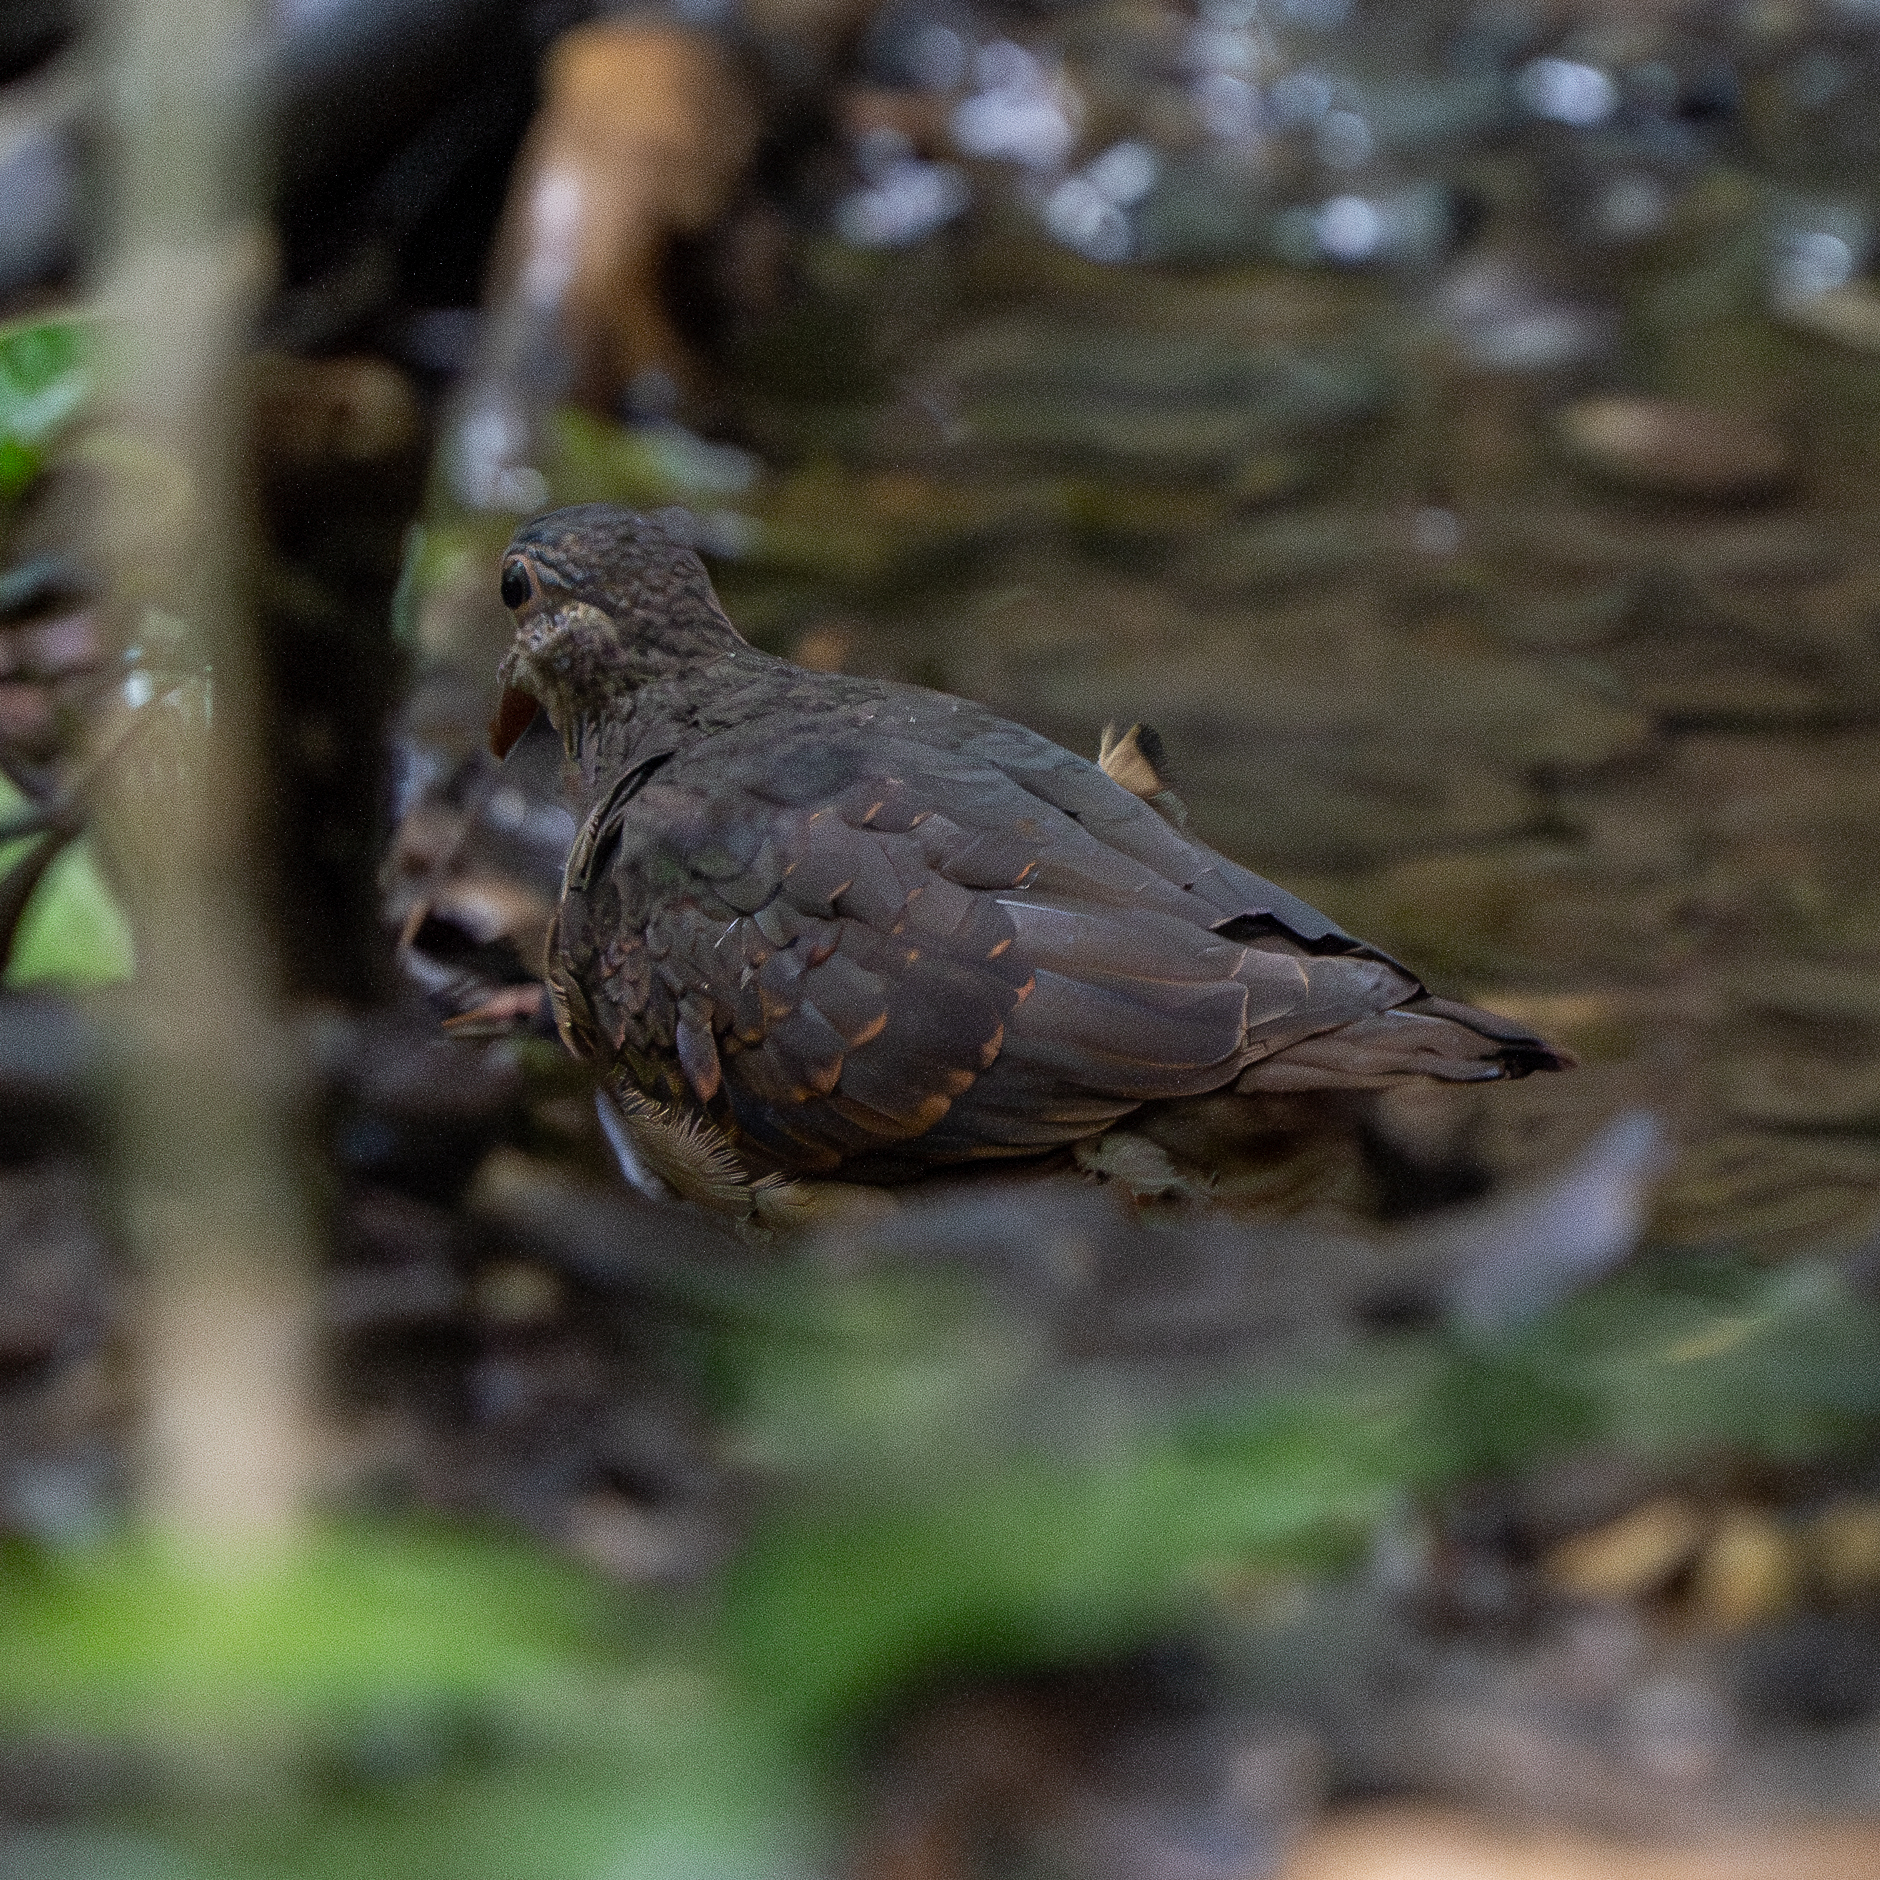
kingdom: Animalia
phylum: Chordata
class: Aves
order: Columbiformes
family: Columbidae
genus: Geotrygon
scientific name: Geotrygon montana
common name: Ruddy quail-dove
